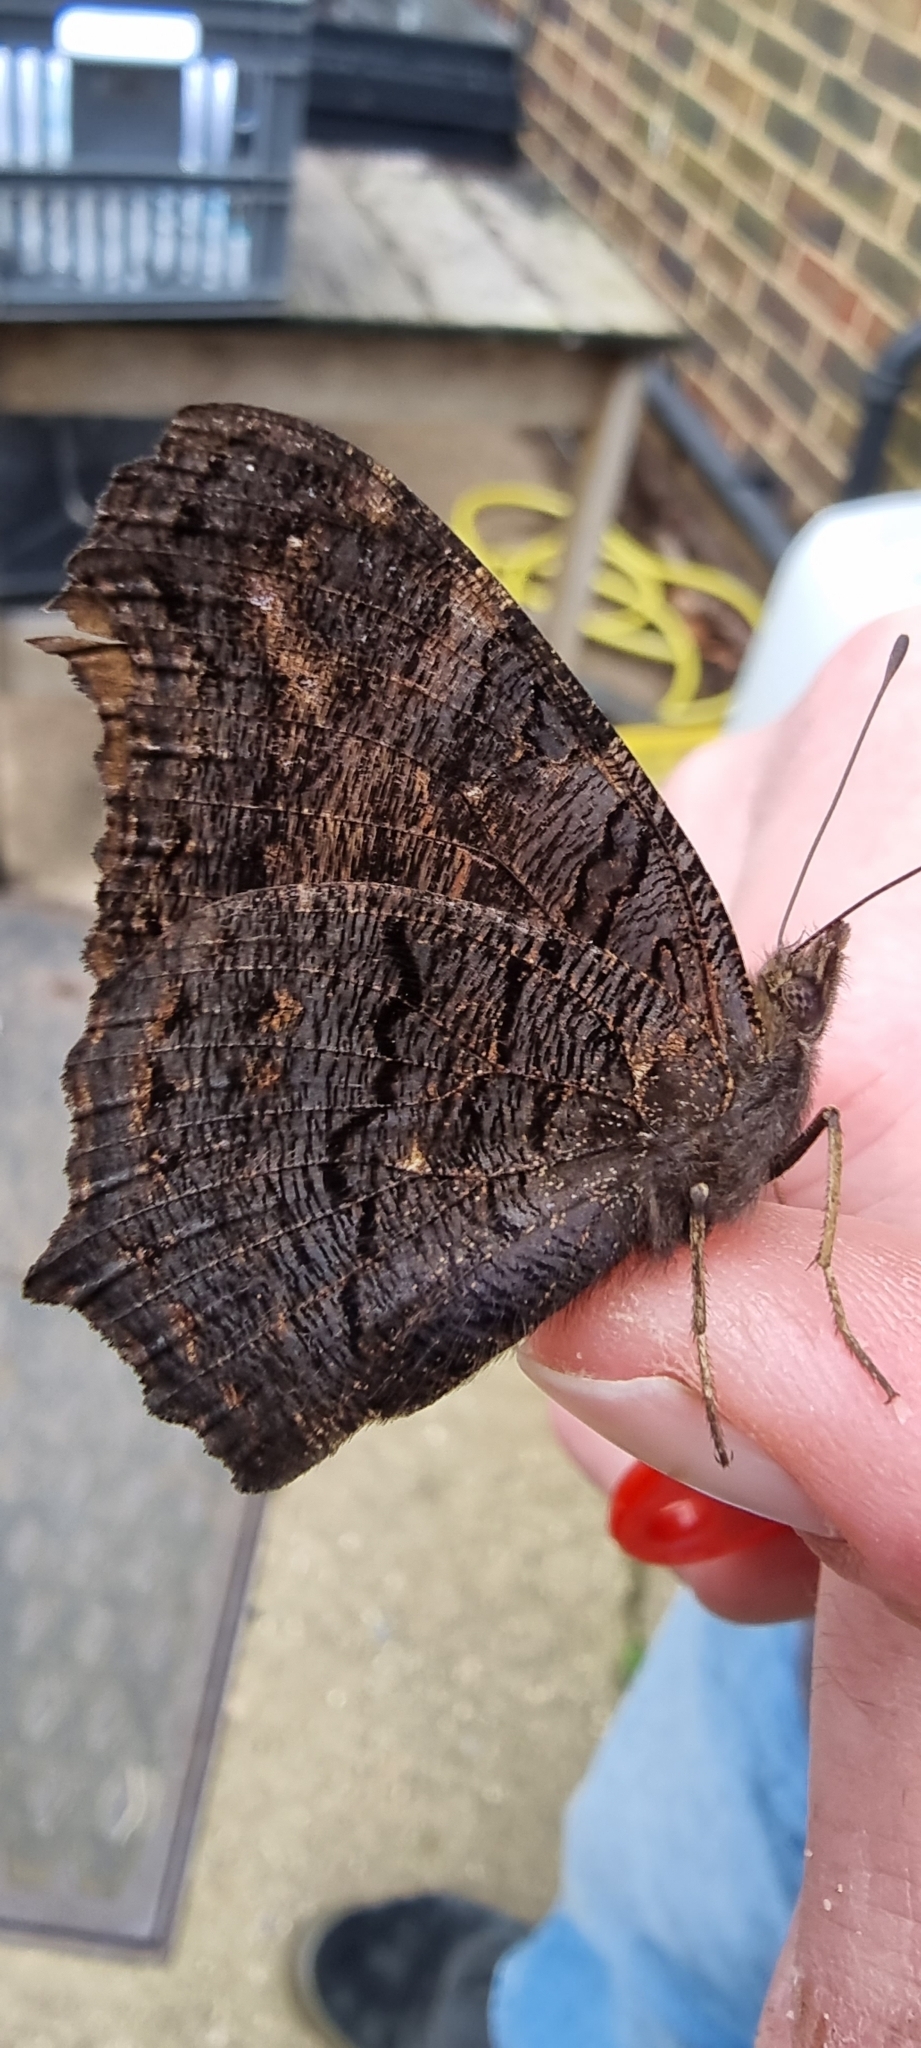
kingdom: Animalia
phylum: Arthropoda
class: Insecta
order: Lepidoptera
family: Nymphalidae
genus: Aglais
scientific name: Aglais io
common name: Peacock
